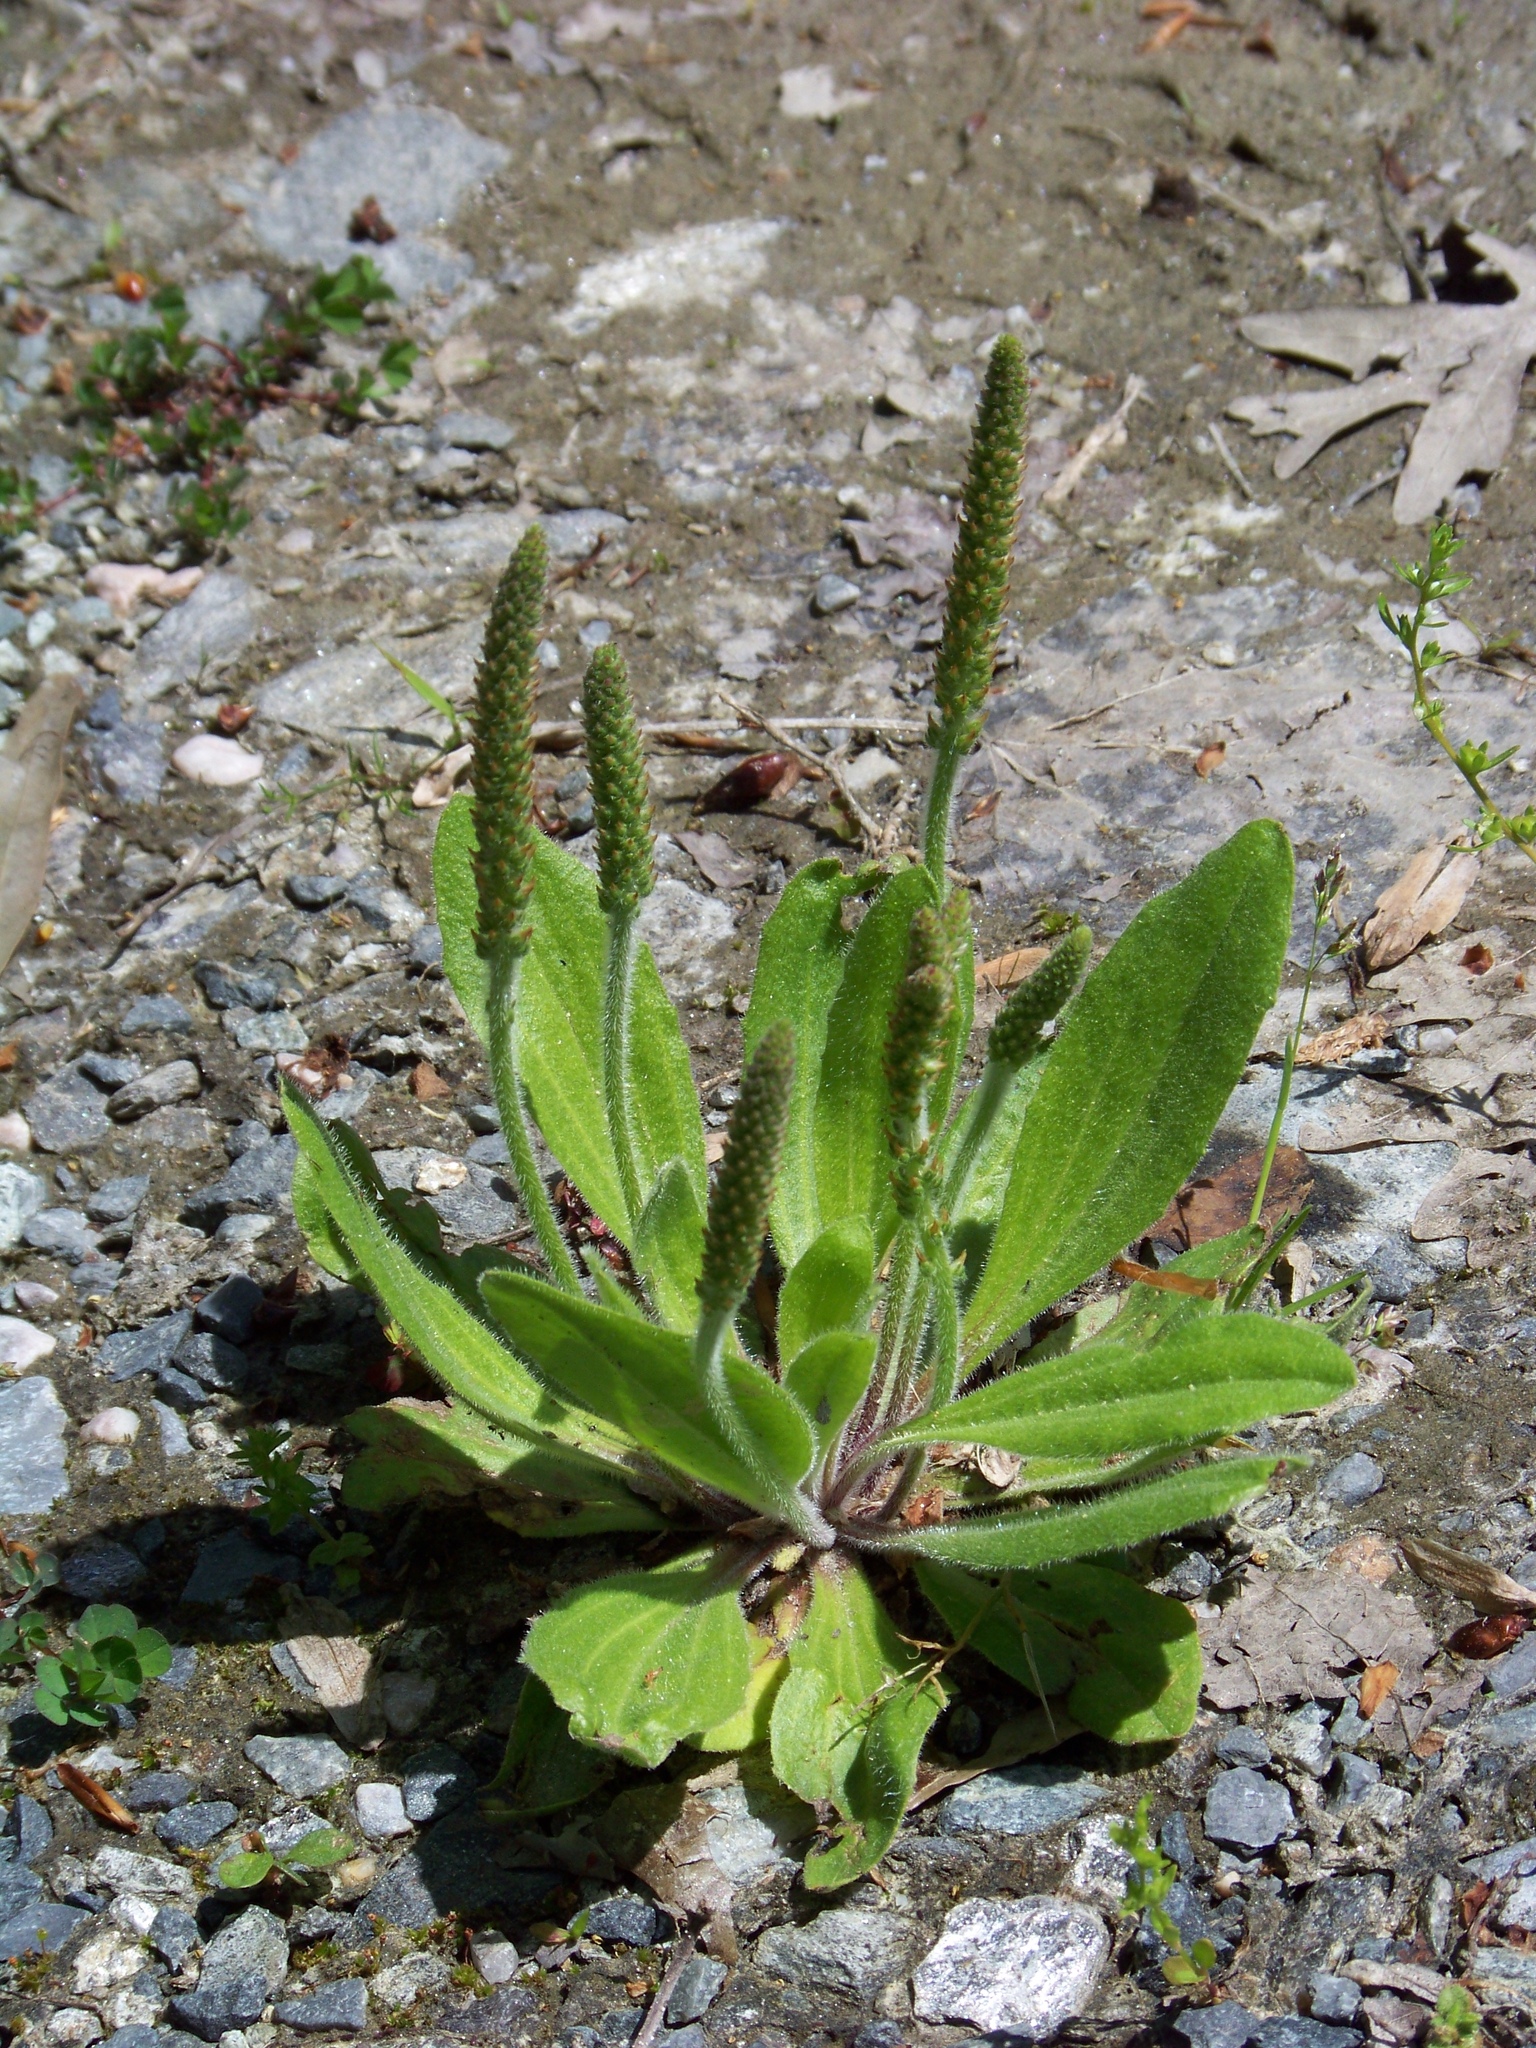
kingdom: Plantae
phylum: Tracheophyta
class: Magnoliopsida
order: Lamiales
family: Plantaginaceae
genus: Plantago
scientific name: Plantago virginica
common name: Hoary plantain
